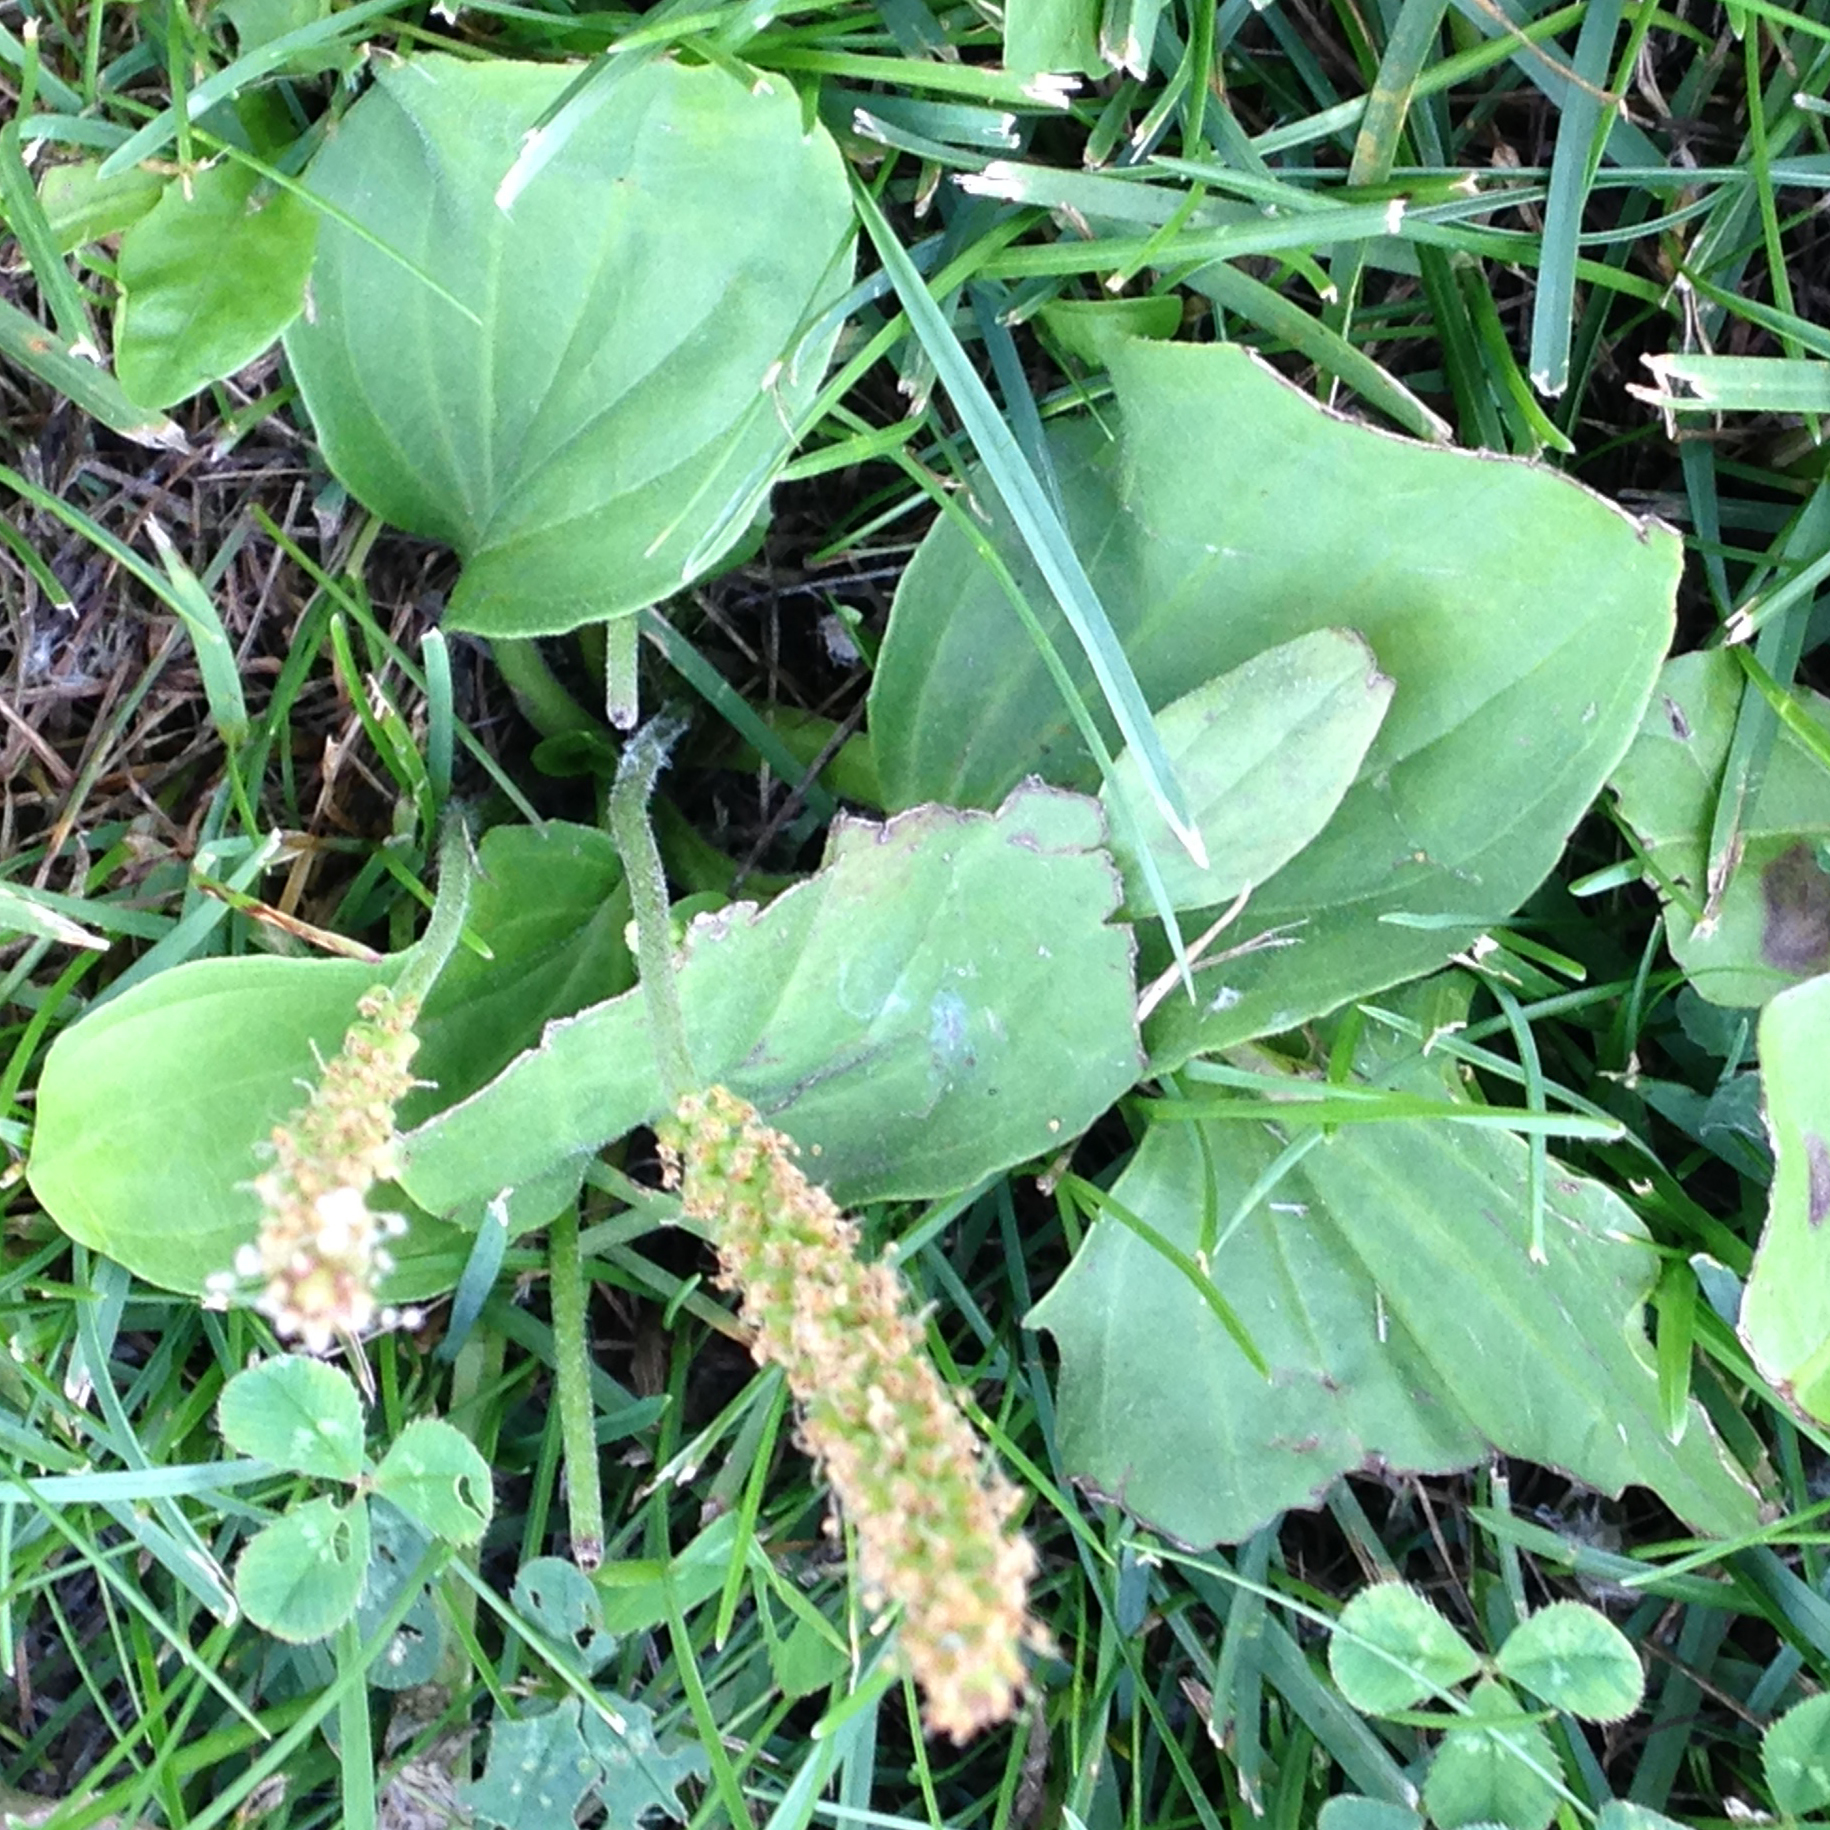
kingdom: Plantae
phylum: Tracheophyta
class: Magnoliopsida
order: Lamiales
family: Plantaginaceae
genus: Plantago
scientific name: Plantago major
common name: Common plantain
